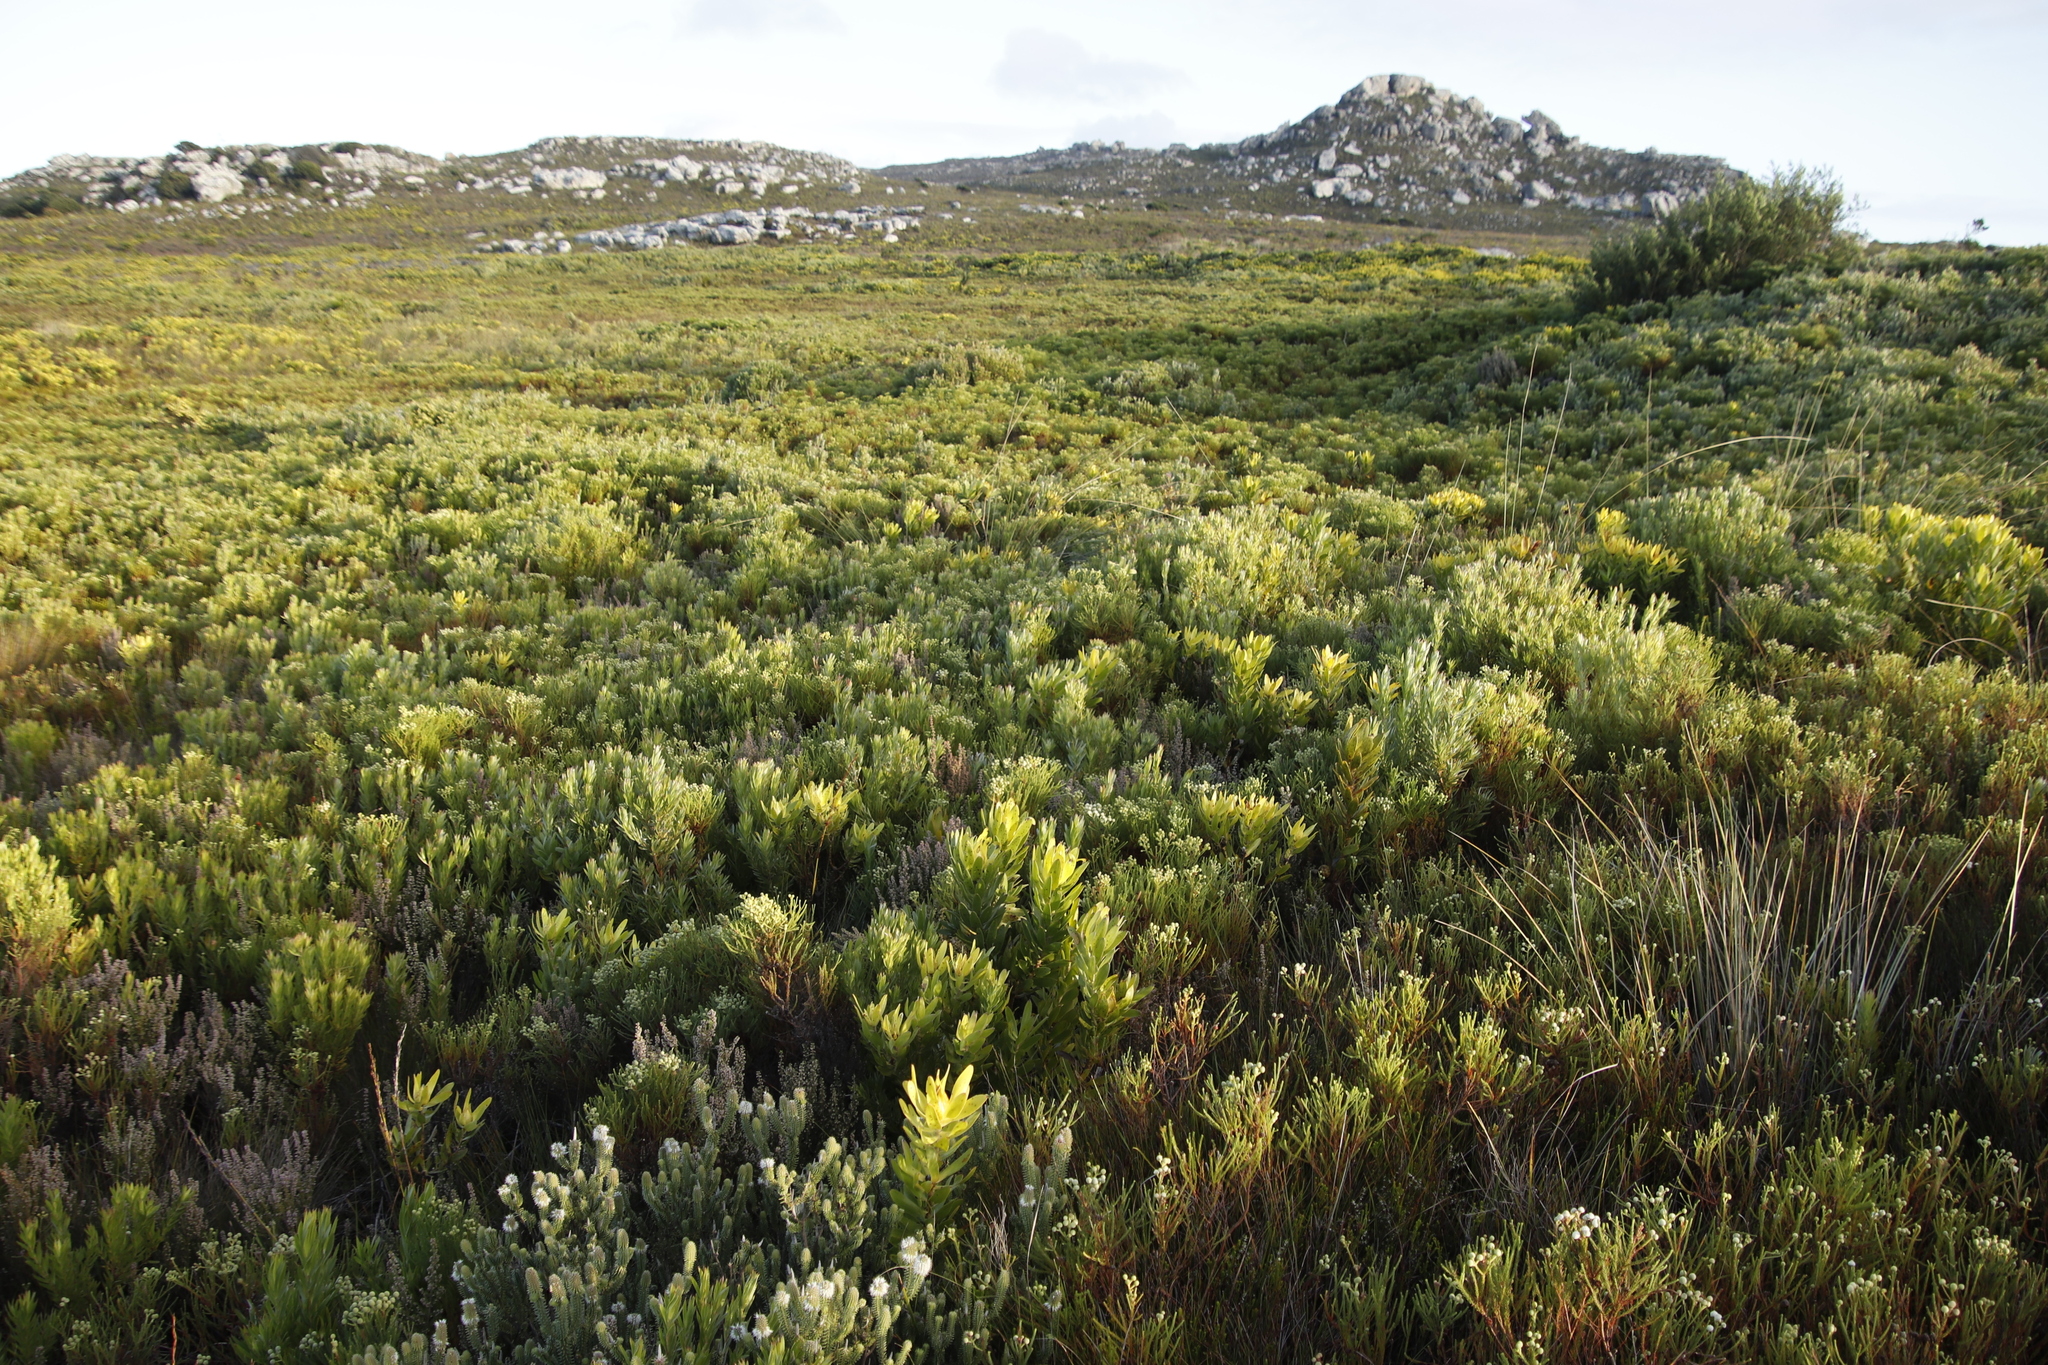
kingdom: Plantae
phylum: Tracheophyta
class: Magnoliopsida
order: Proteales
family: Proteaceae
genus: Leucadendron
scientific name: Leucadendron xanthoconus
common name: Sickle-leaf conebush
